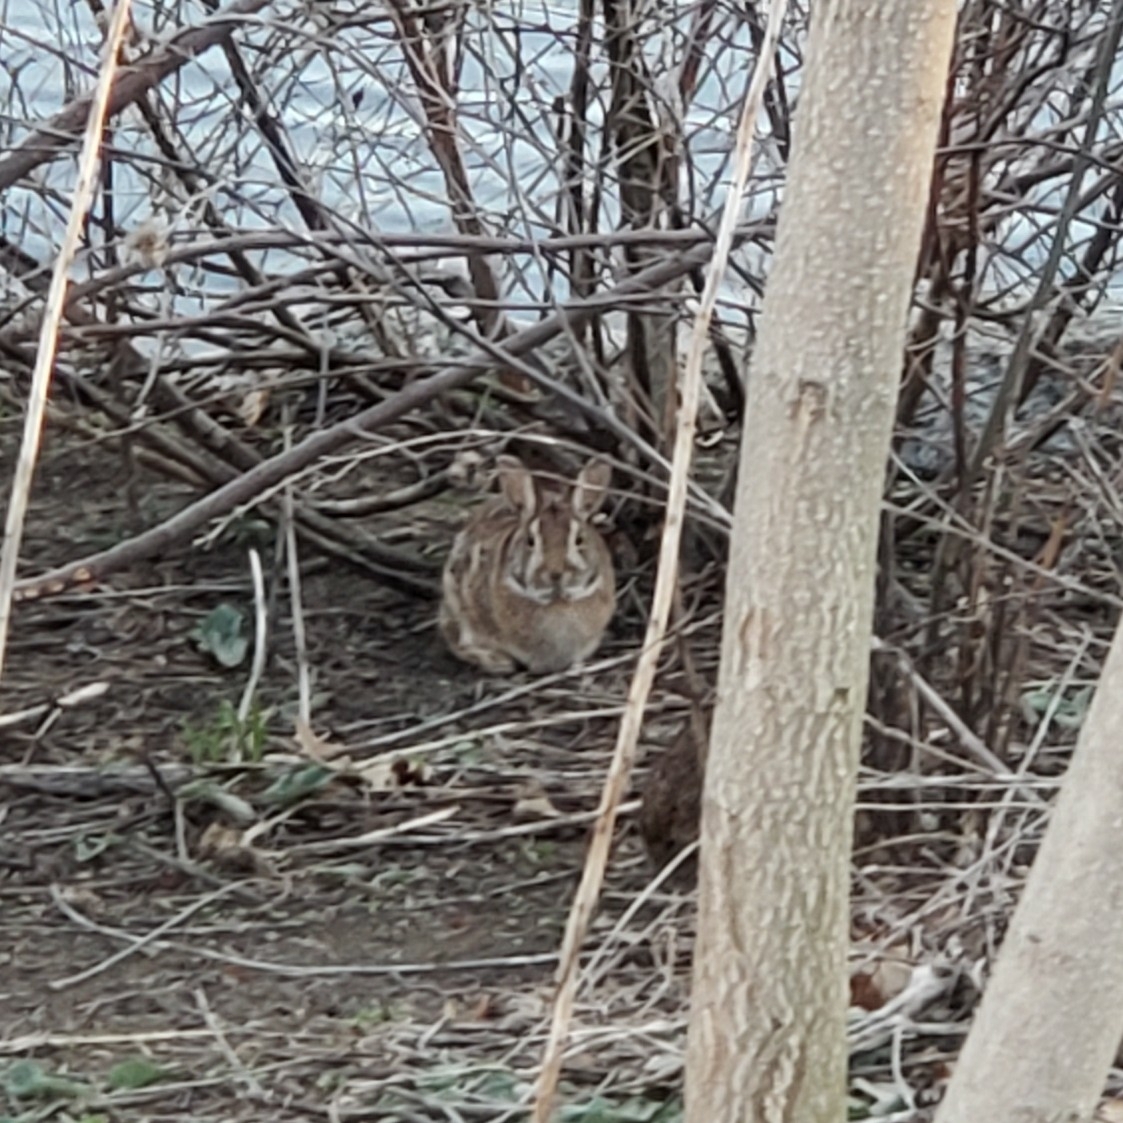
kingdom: Animalia
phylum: Chordata
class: Mammalia
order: Lagomorpha
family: Leporidae
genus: Sylvilagus
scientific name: Sylvilagus floridanus
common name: Eastern cottontail
